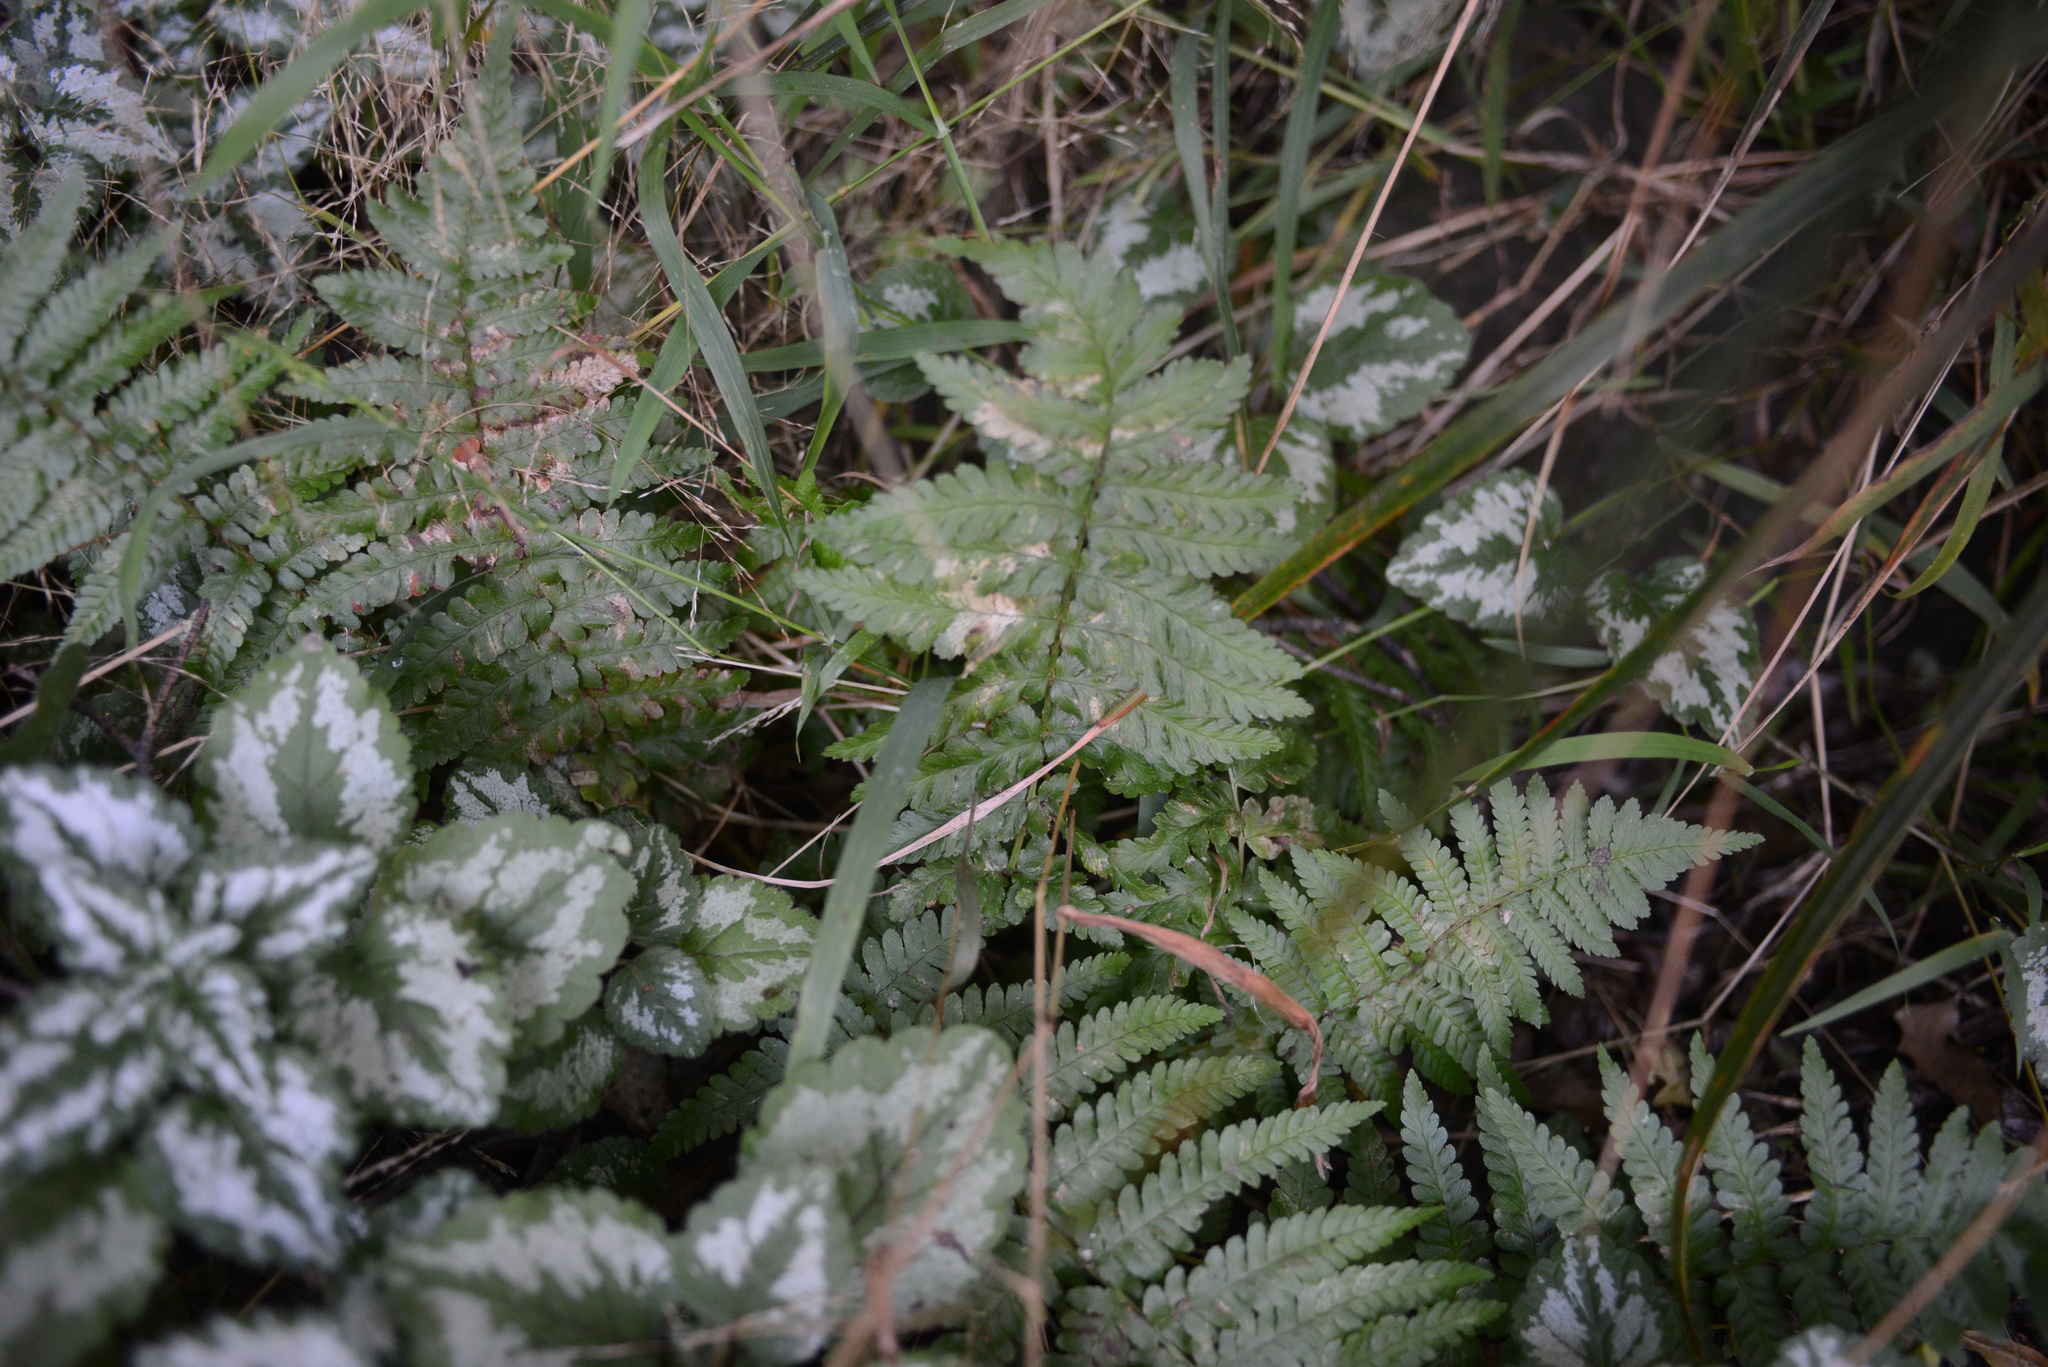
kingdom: Plantae
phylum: Tracheophyta
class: Polypodiopsida
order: Polypodiales
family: Dryopteridaceae
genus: Dryopteris
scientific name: Dryopteris filix-mas
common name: Male fern
